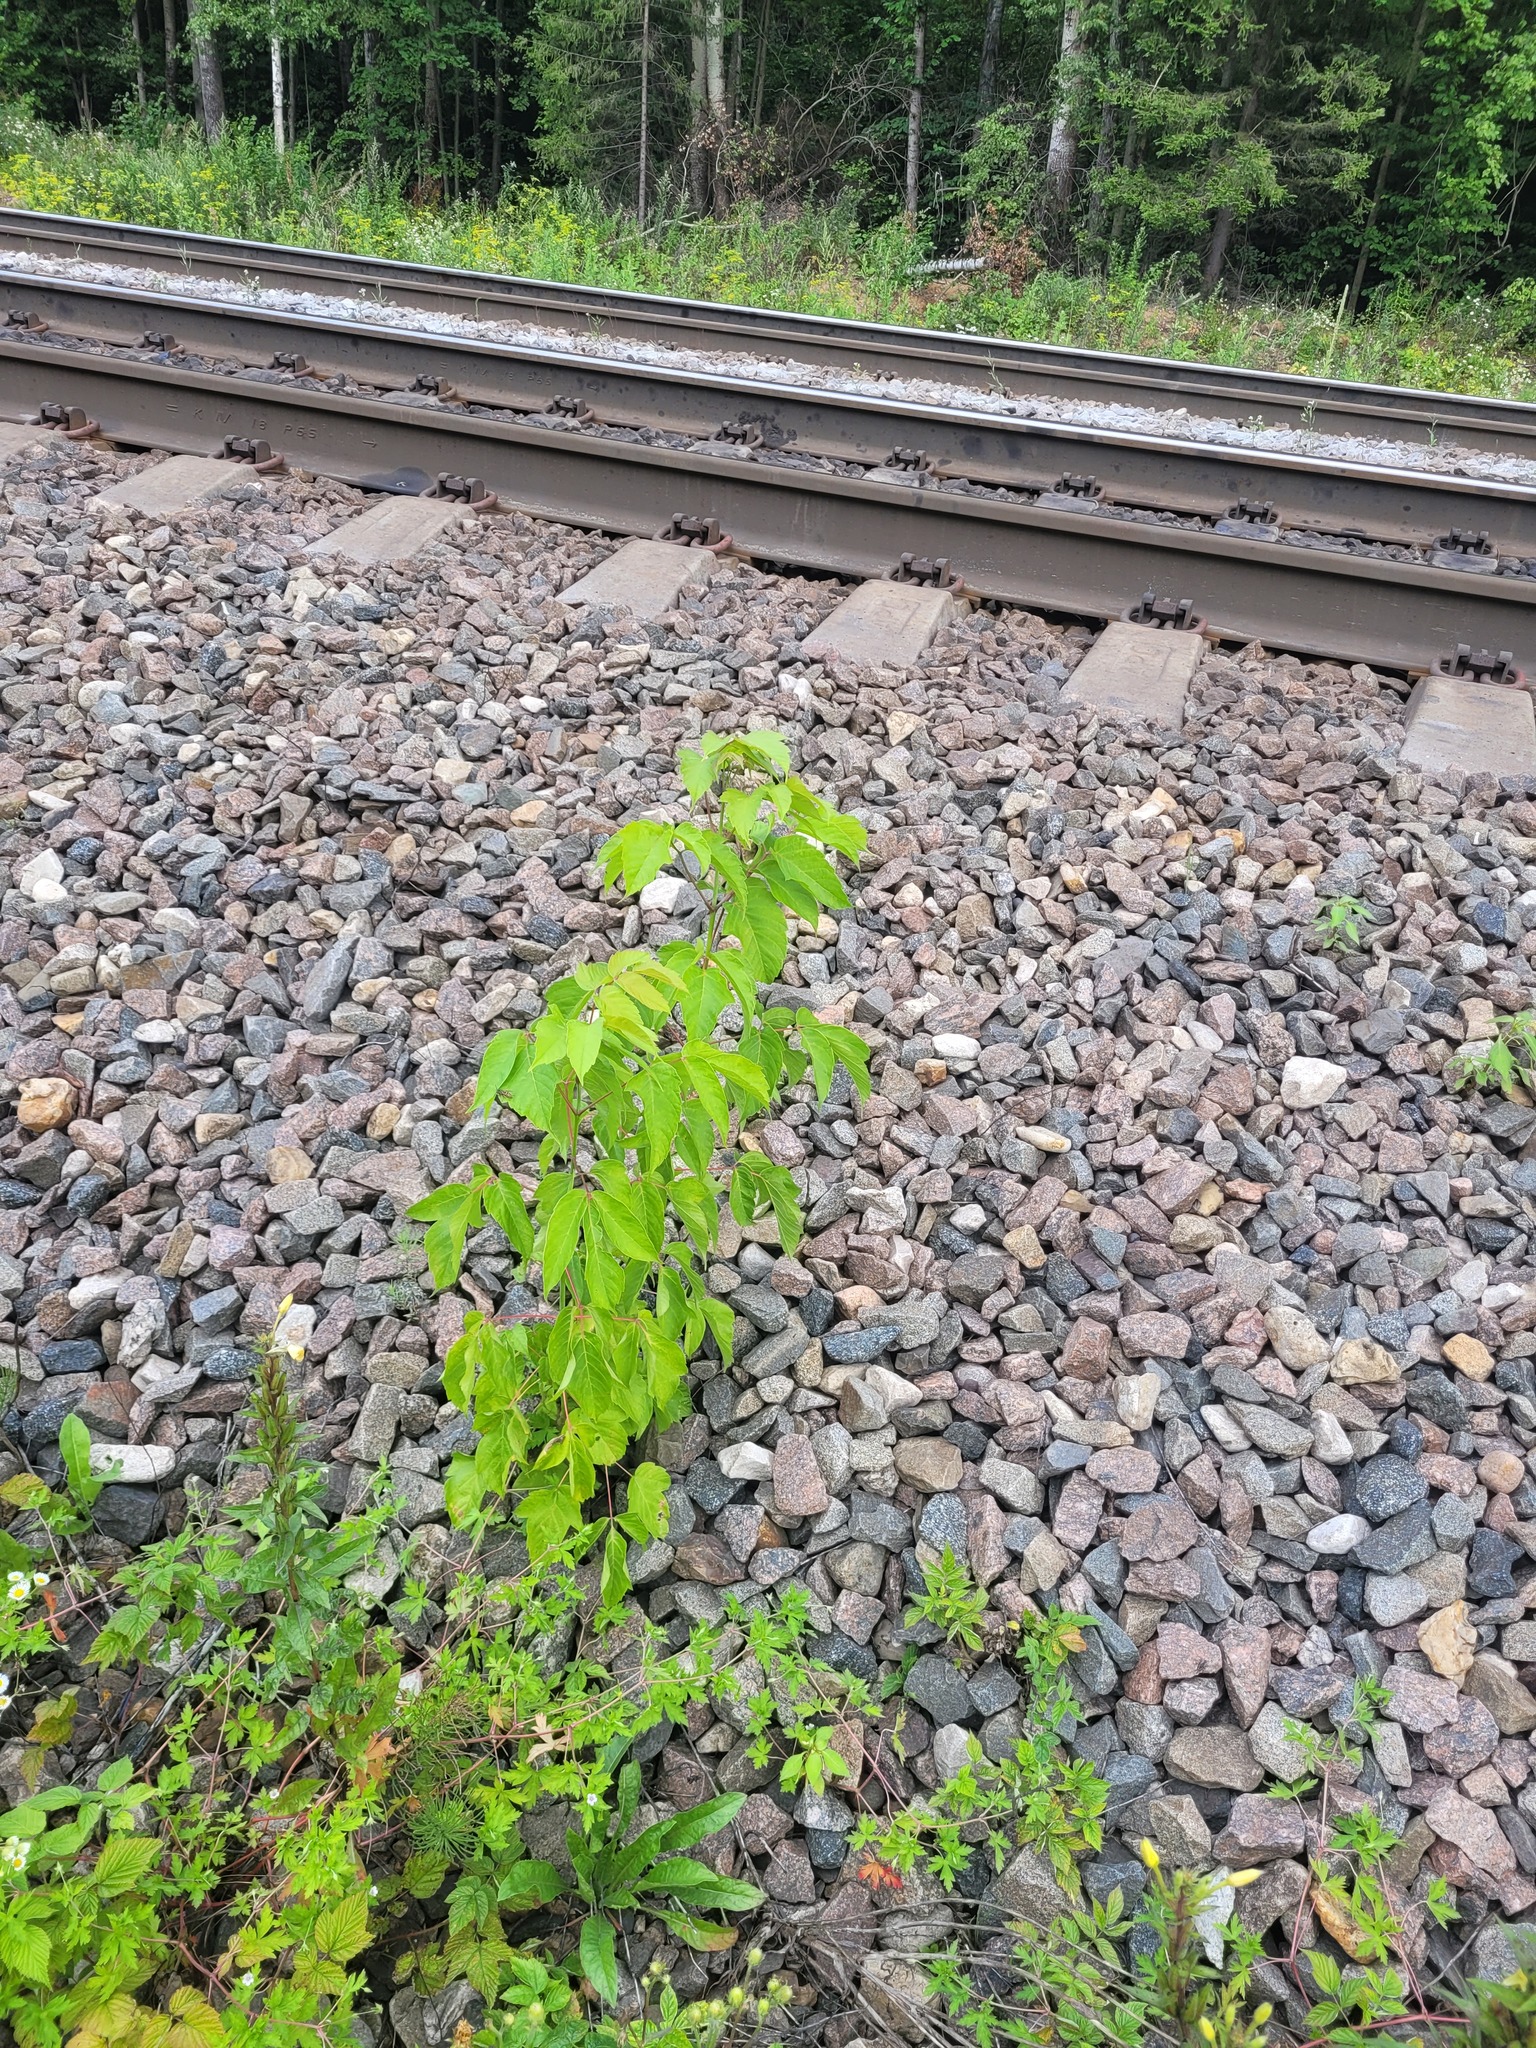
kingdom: Plantae
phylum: Tracheophyta
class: Magnoliopsida
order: Sapindales
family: Sapindaceae
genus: Acer
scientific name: Acer negundo
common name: Ashleaf maple
